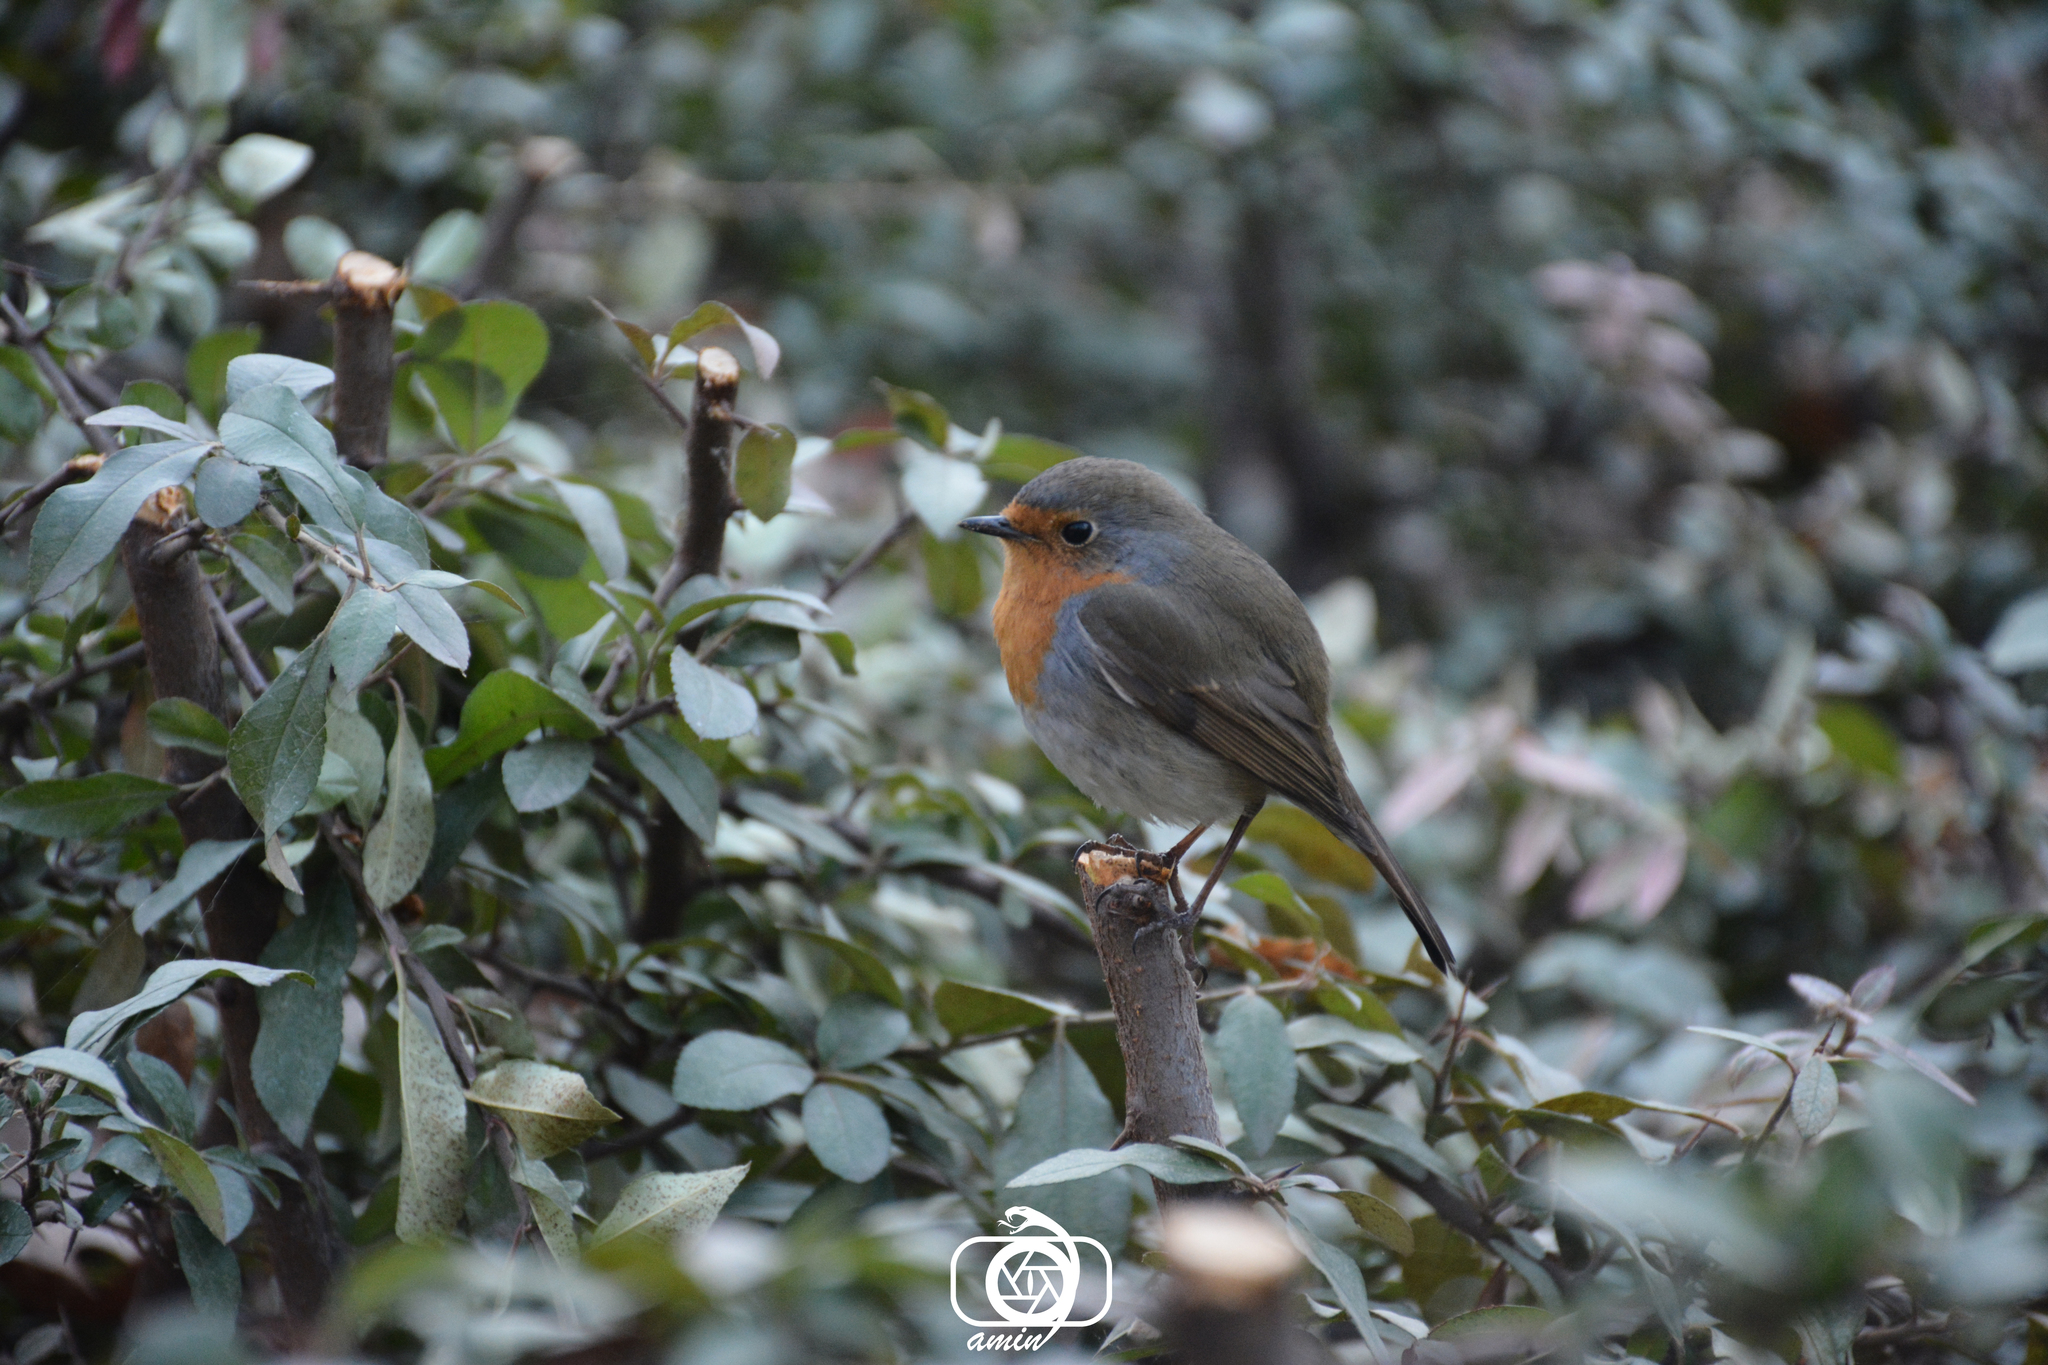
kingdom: Animalia
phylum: Chordata
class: Aves
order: Passeriformes
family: Muscicapidae
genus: Erithacus
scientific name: Erithacus rubecula
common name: European robin
